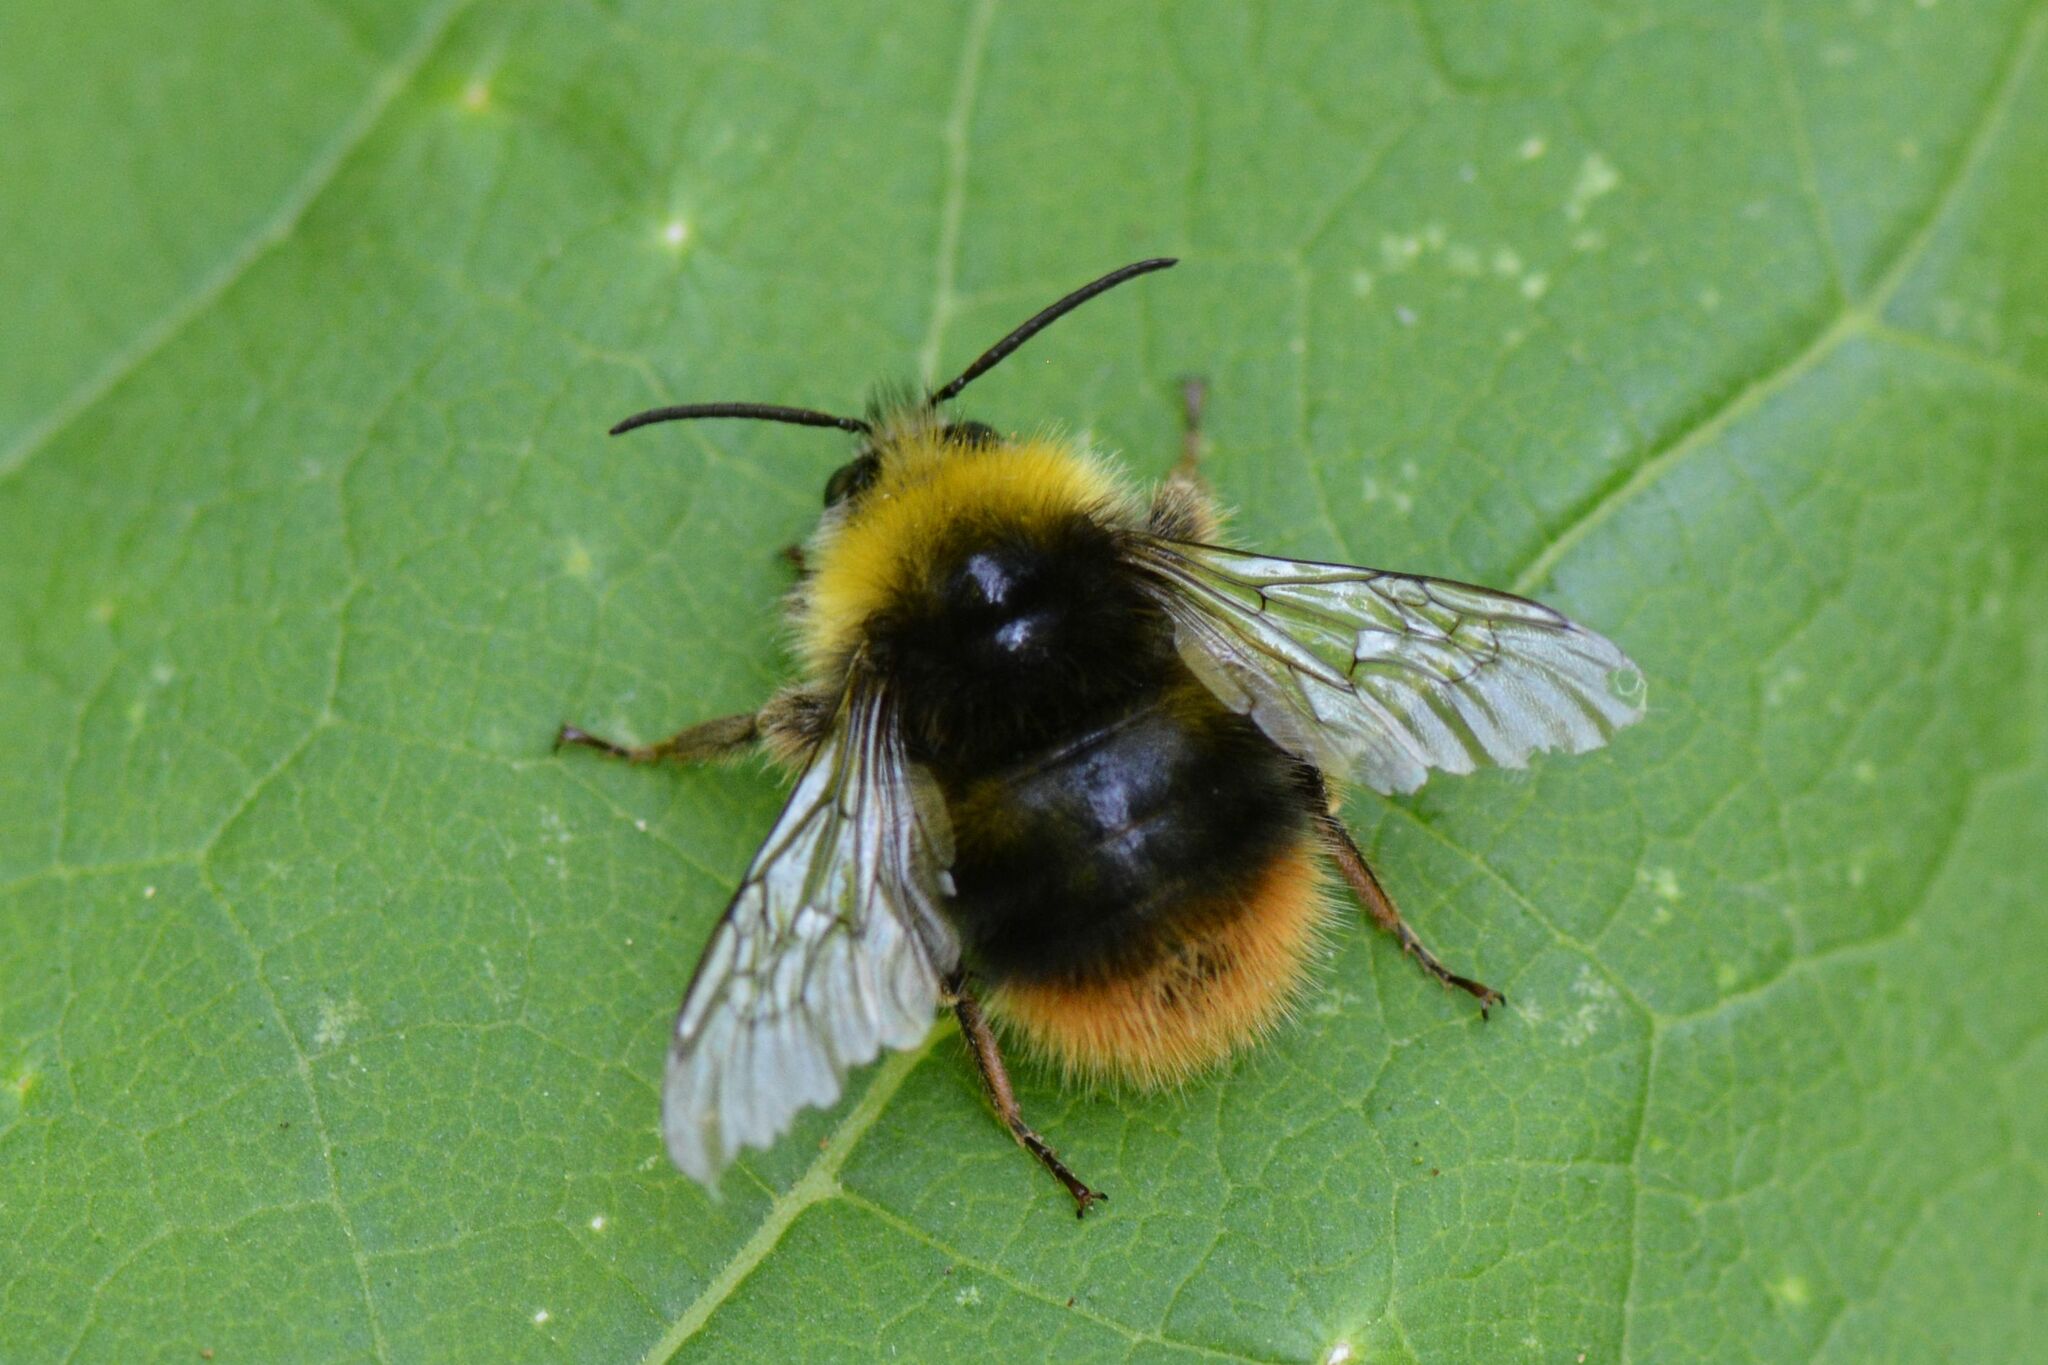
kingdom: Animalia
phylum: Arthropoda
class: Insecta
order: Hymenoptera
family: Apidae
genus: Bombus
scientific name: Bombus pratorum
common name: Early humble-bee
